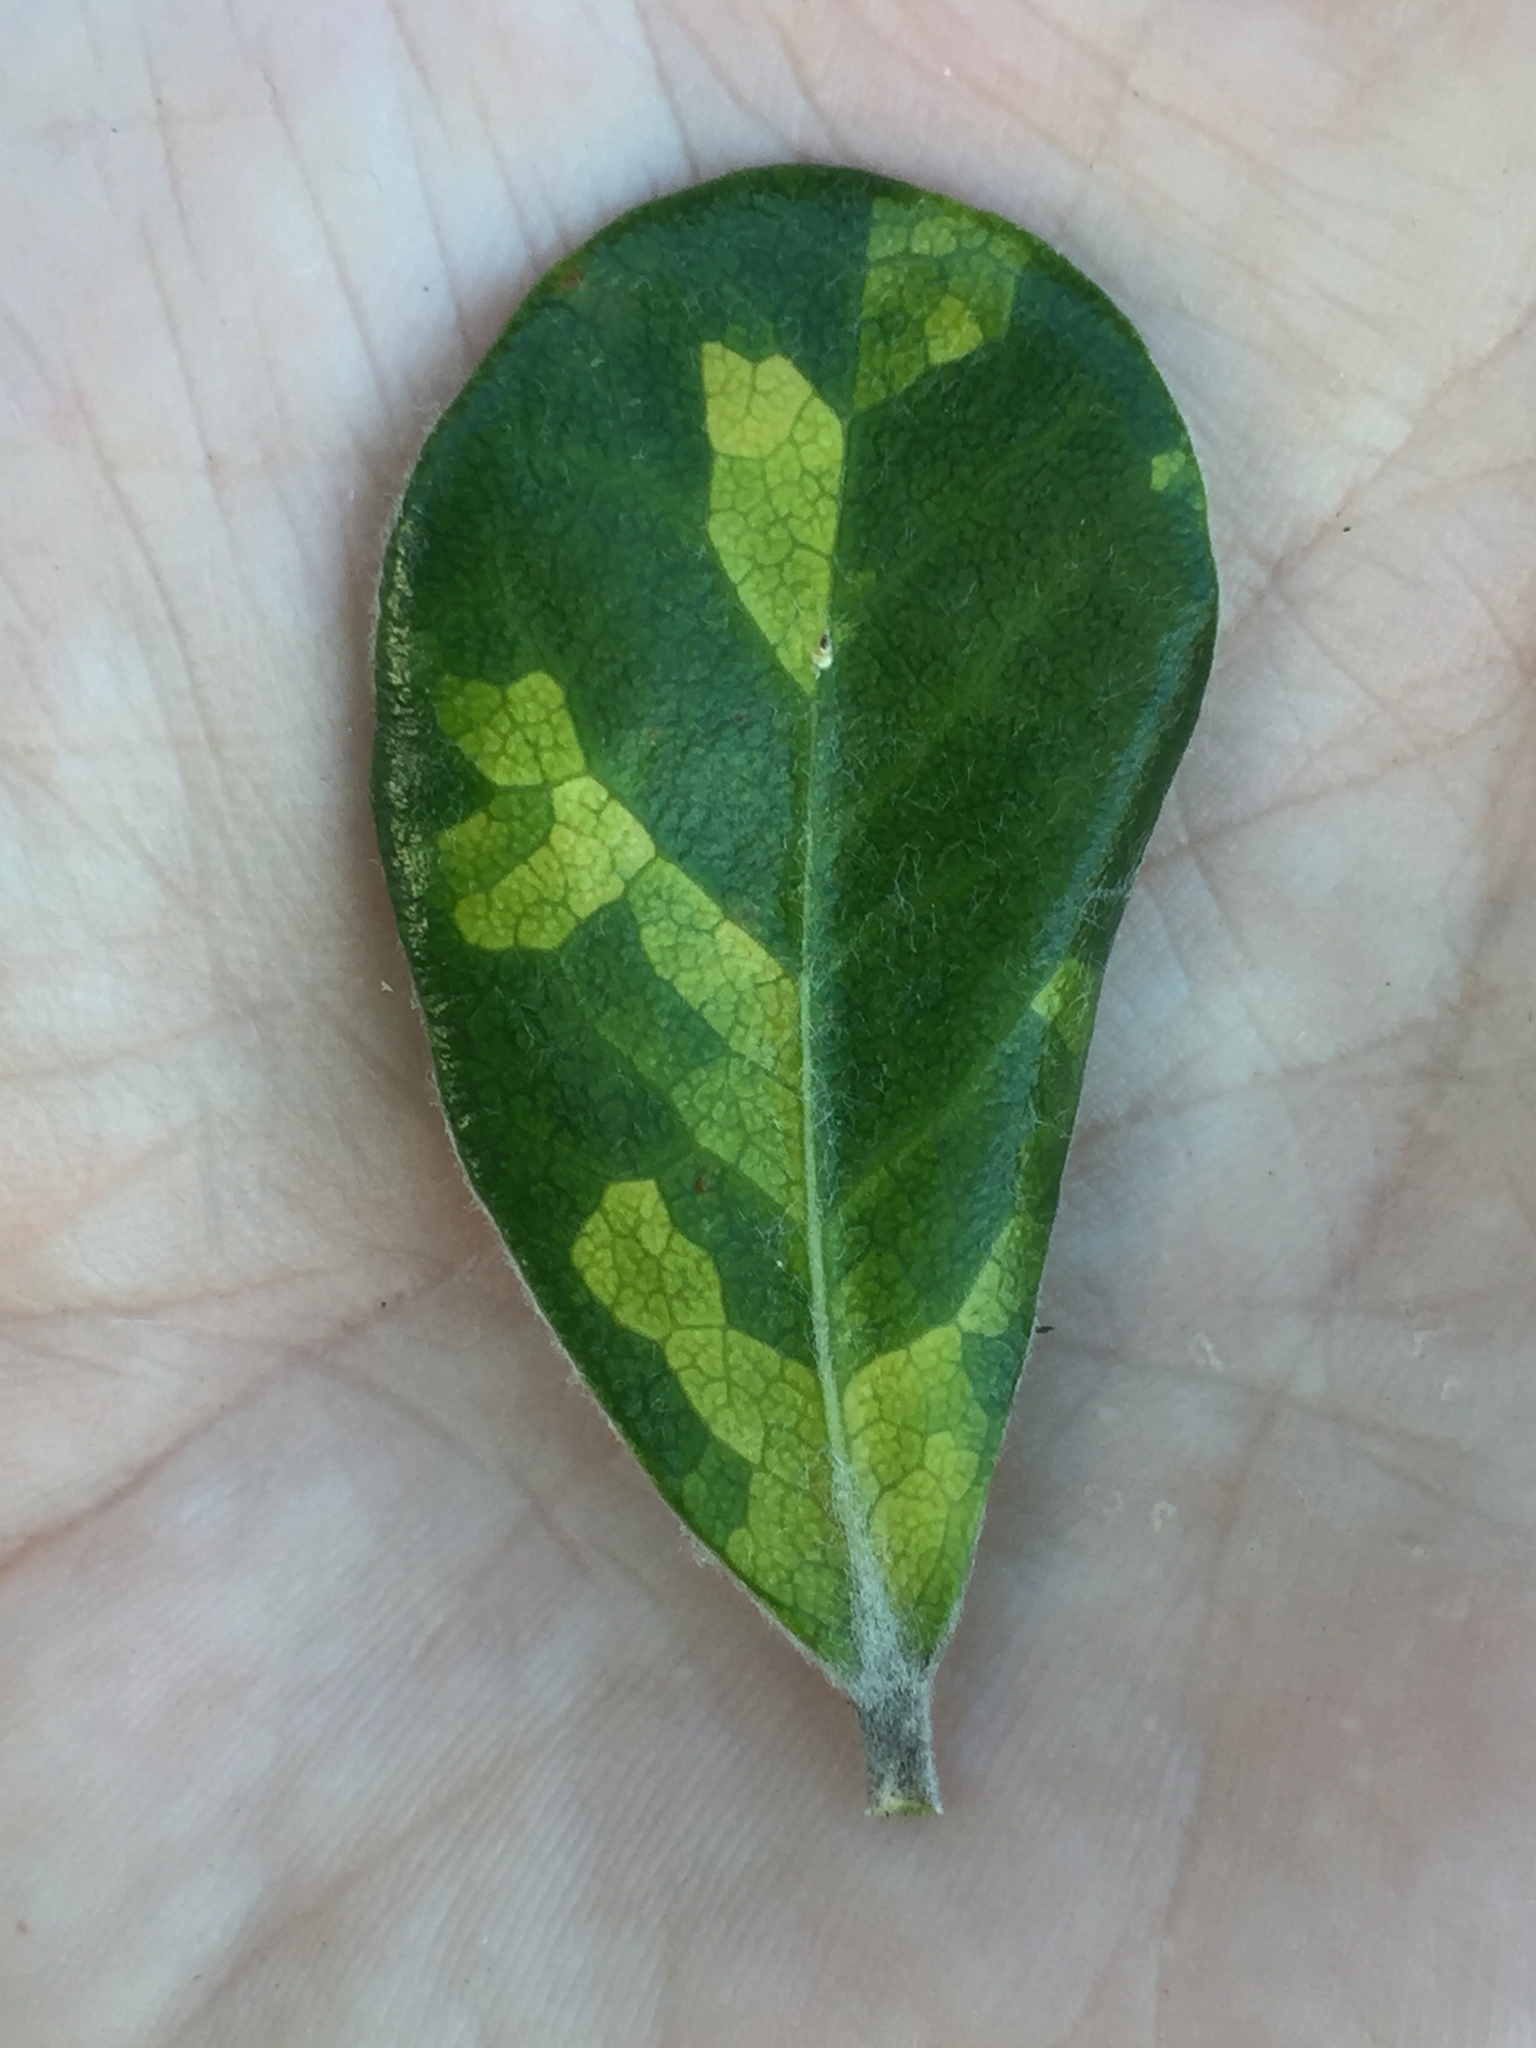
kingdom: Animalia
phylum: Nematoda
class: Chromadorea
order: Rhabditida
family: Anguinidae
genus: Zeatylenchus
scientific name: Zeatylenchus pittosporum
